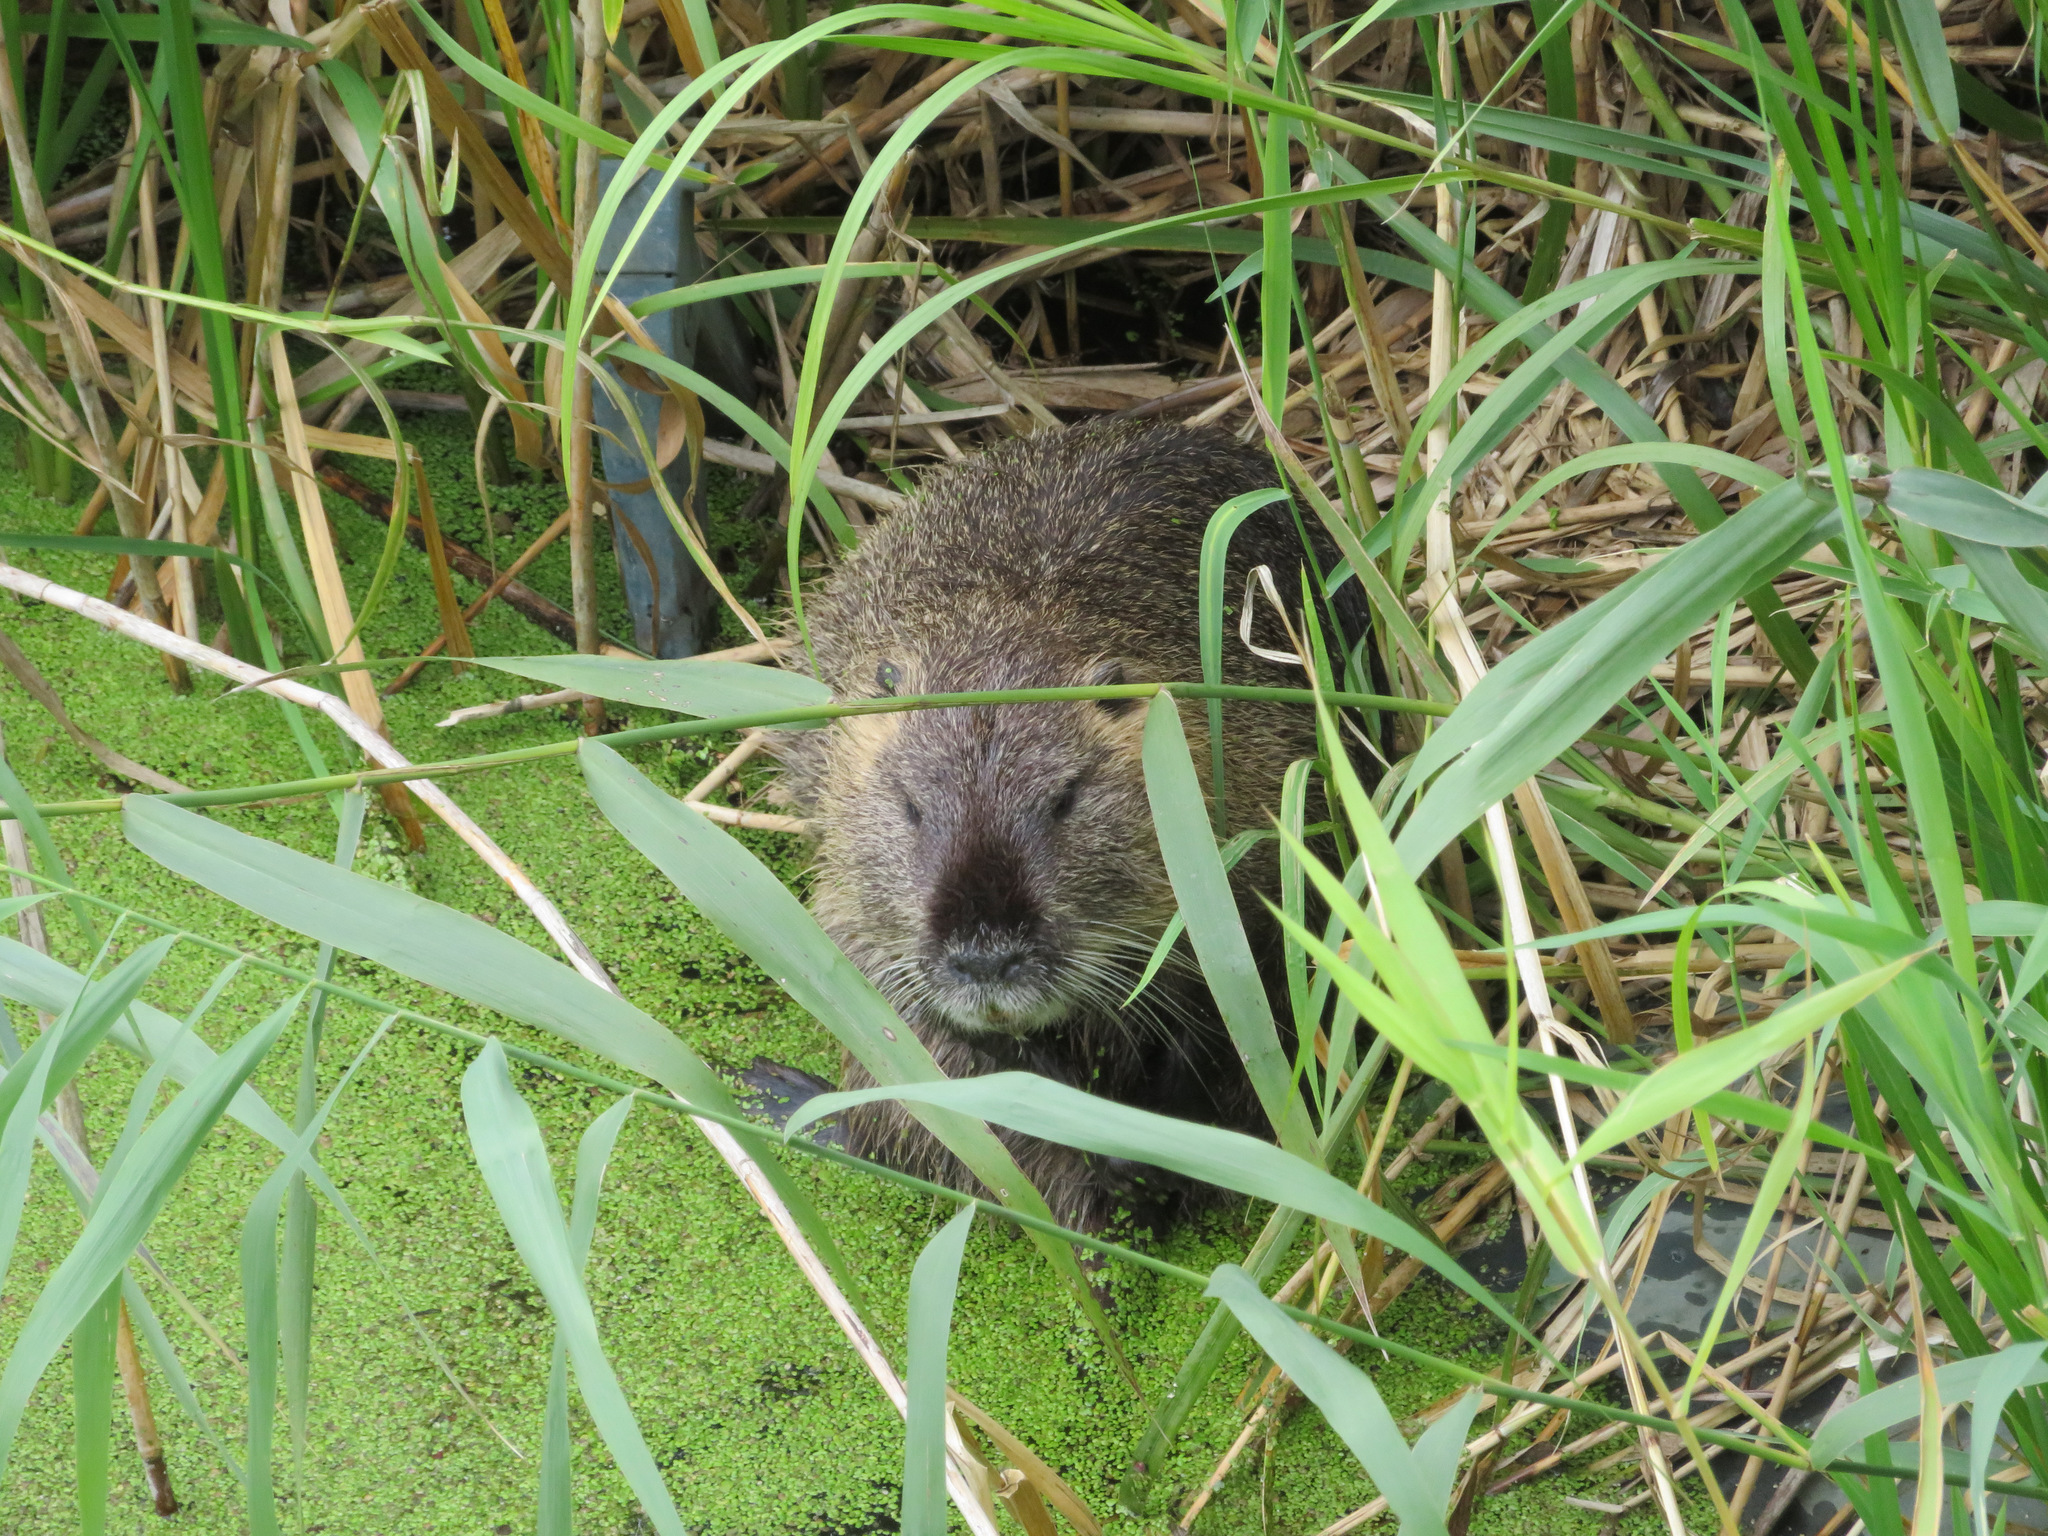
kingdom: Animalia
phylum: Chordata
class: Mammalia
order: Rodentia
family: Myocastoridae
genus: Myocastor
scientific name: Myocastor coypus
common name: Coypu
